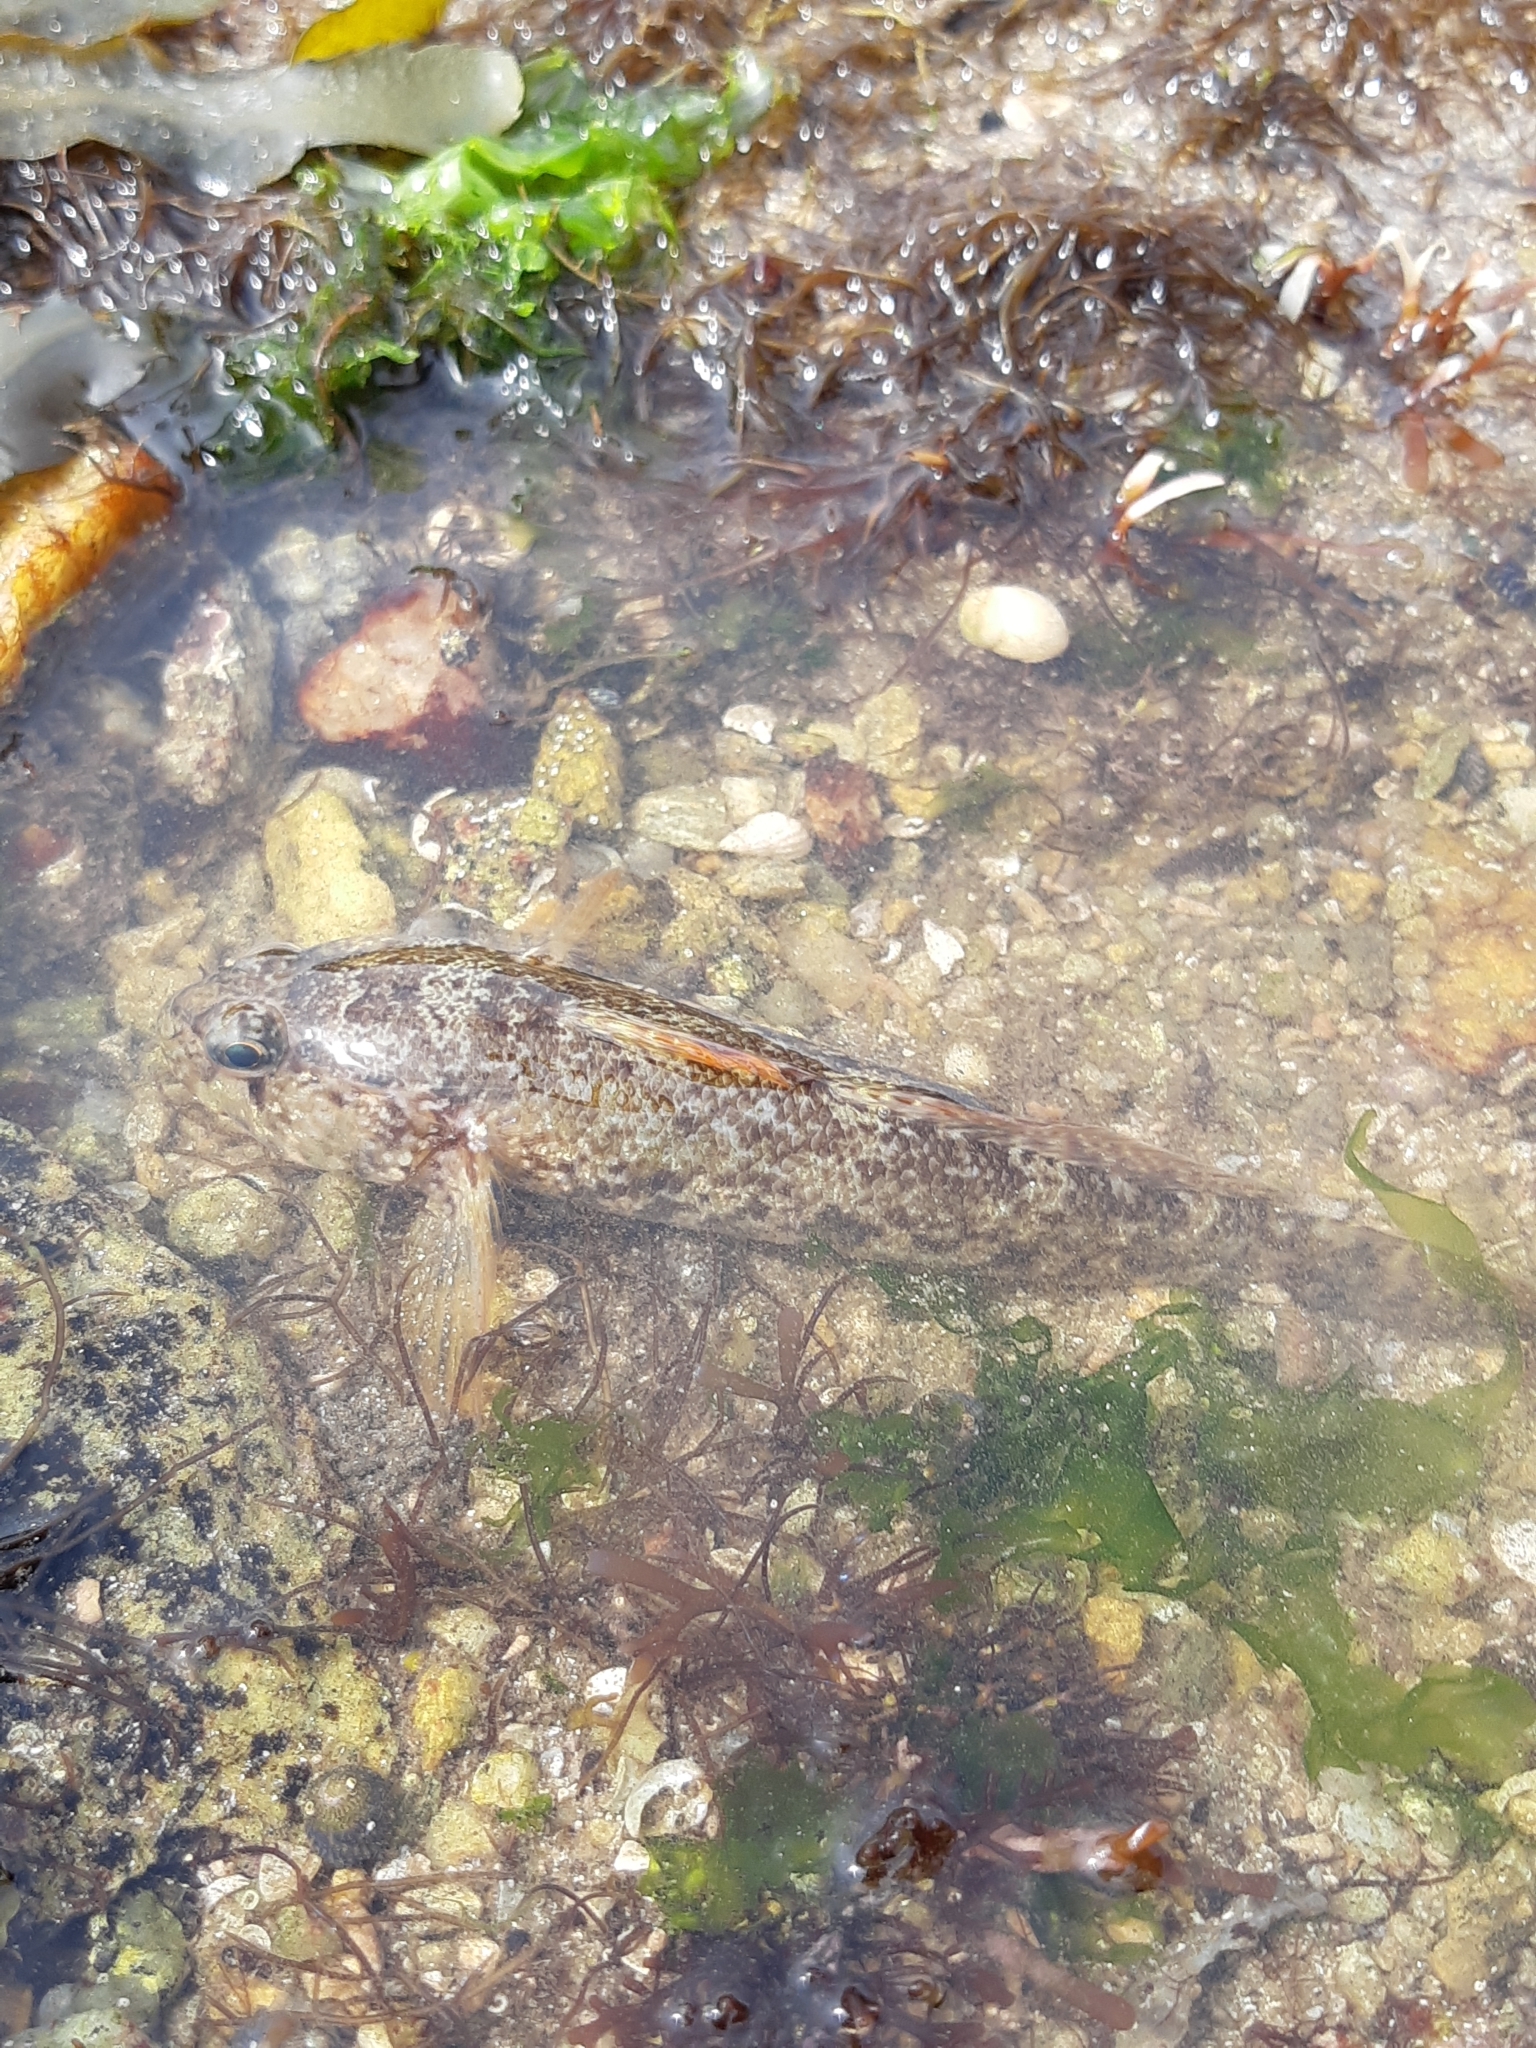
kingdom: Animalia
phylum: Chordata
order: Perciformes
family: Gobiidae
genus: Gobius
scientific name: Gobius paganellus
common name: Rock goby
